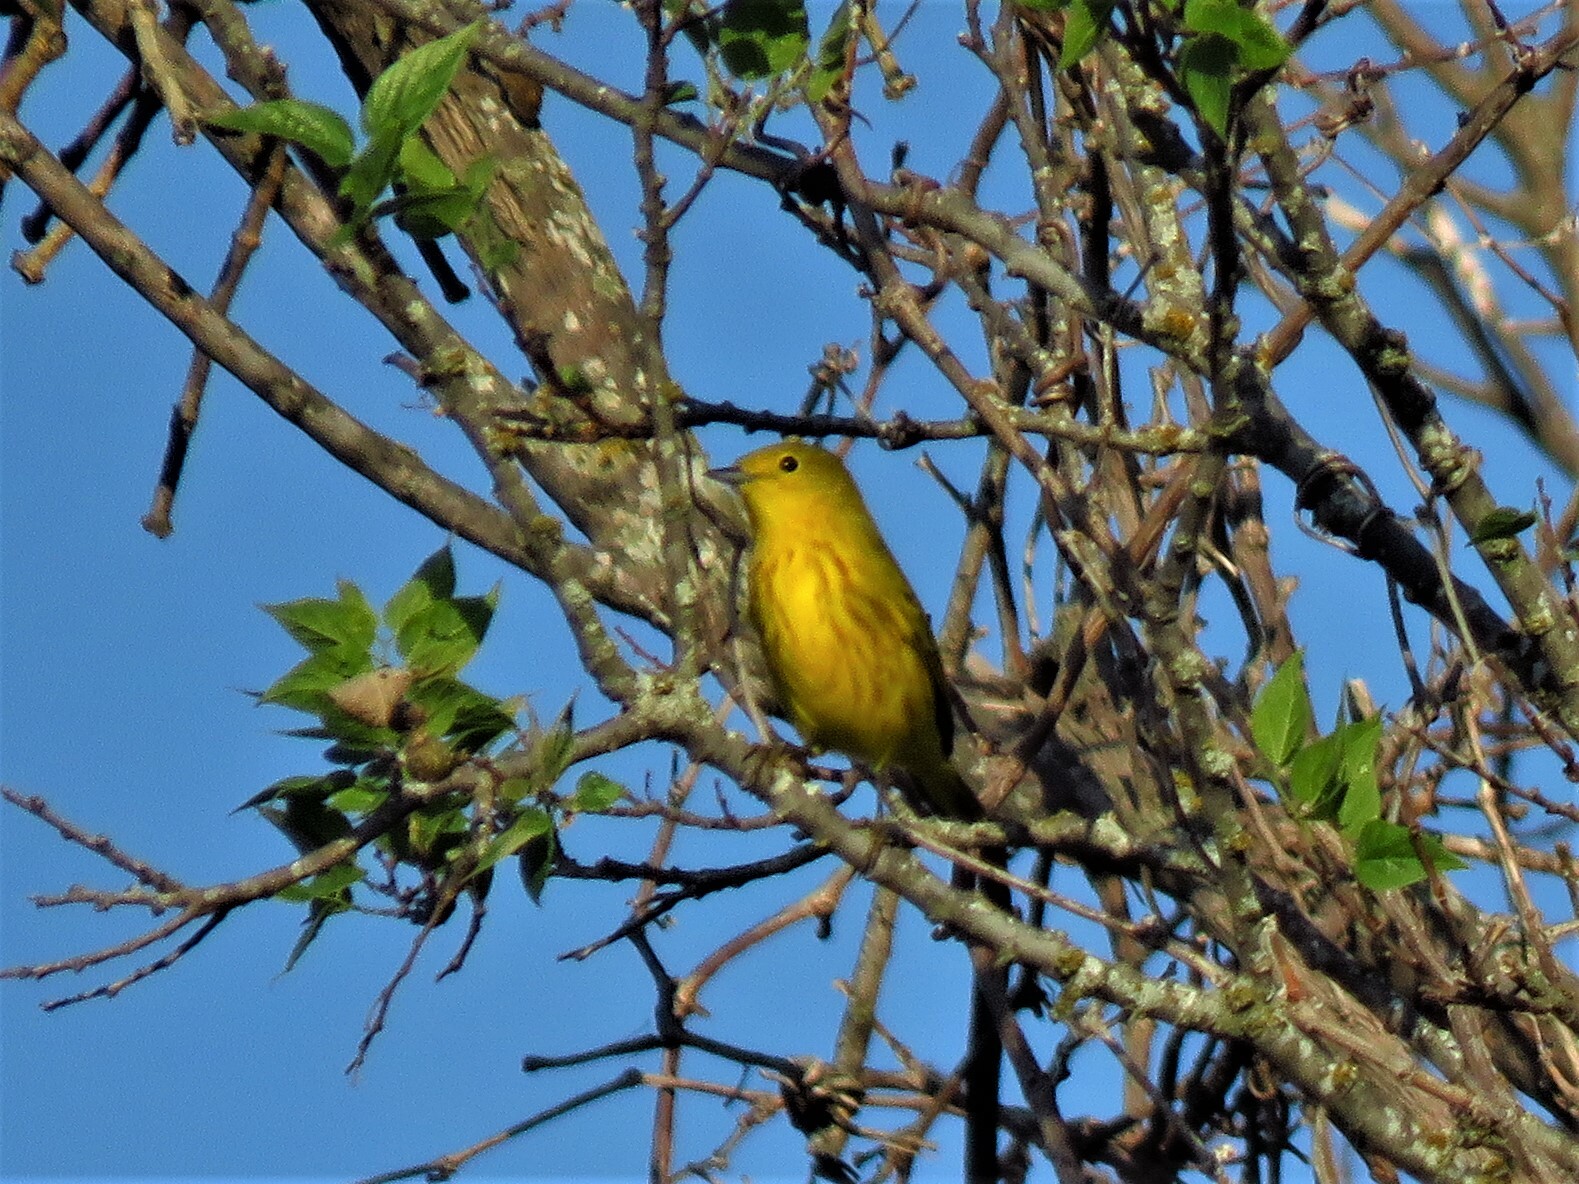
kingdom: Animalia
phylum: Chordata
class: Aves
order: Passeriformes
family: Parulidae
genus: Setophaga
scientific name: Setophaga petechia
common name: Yellow warbler
